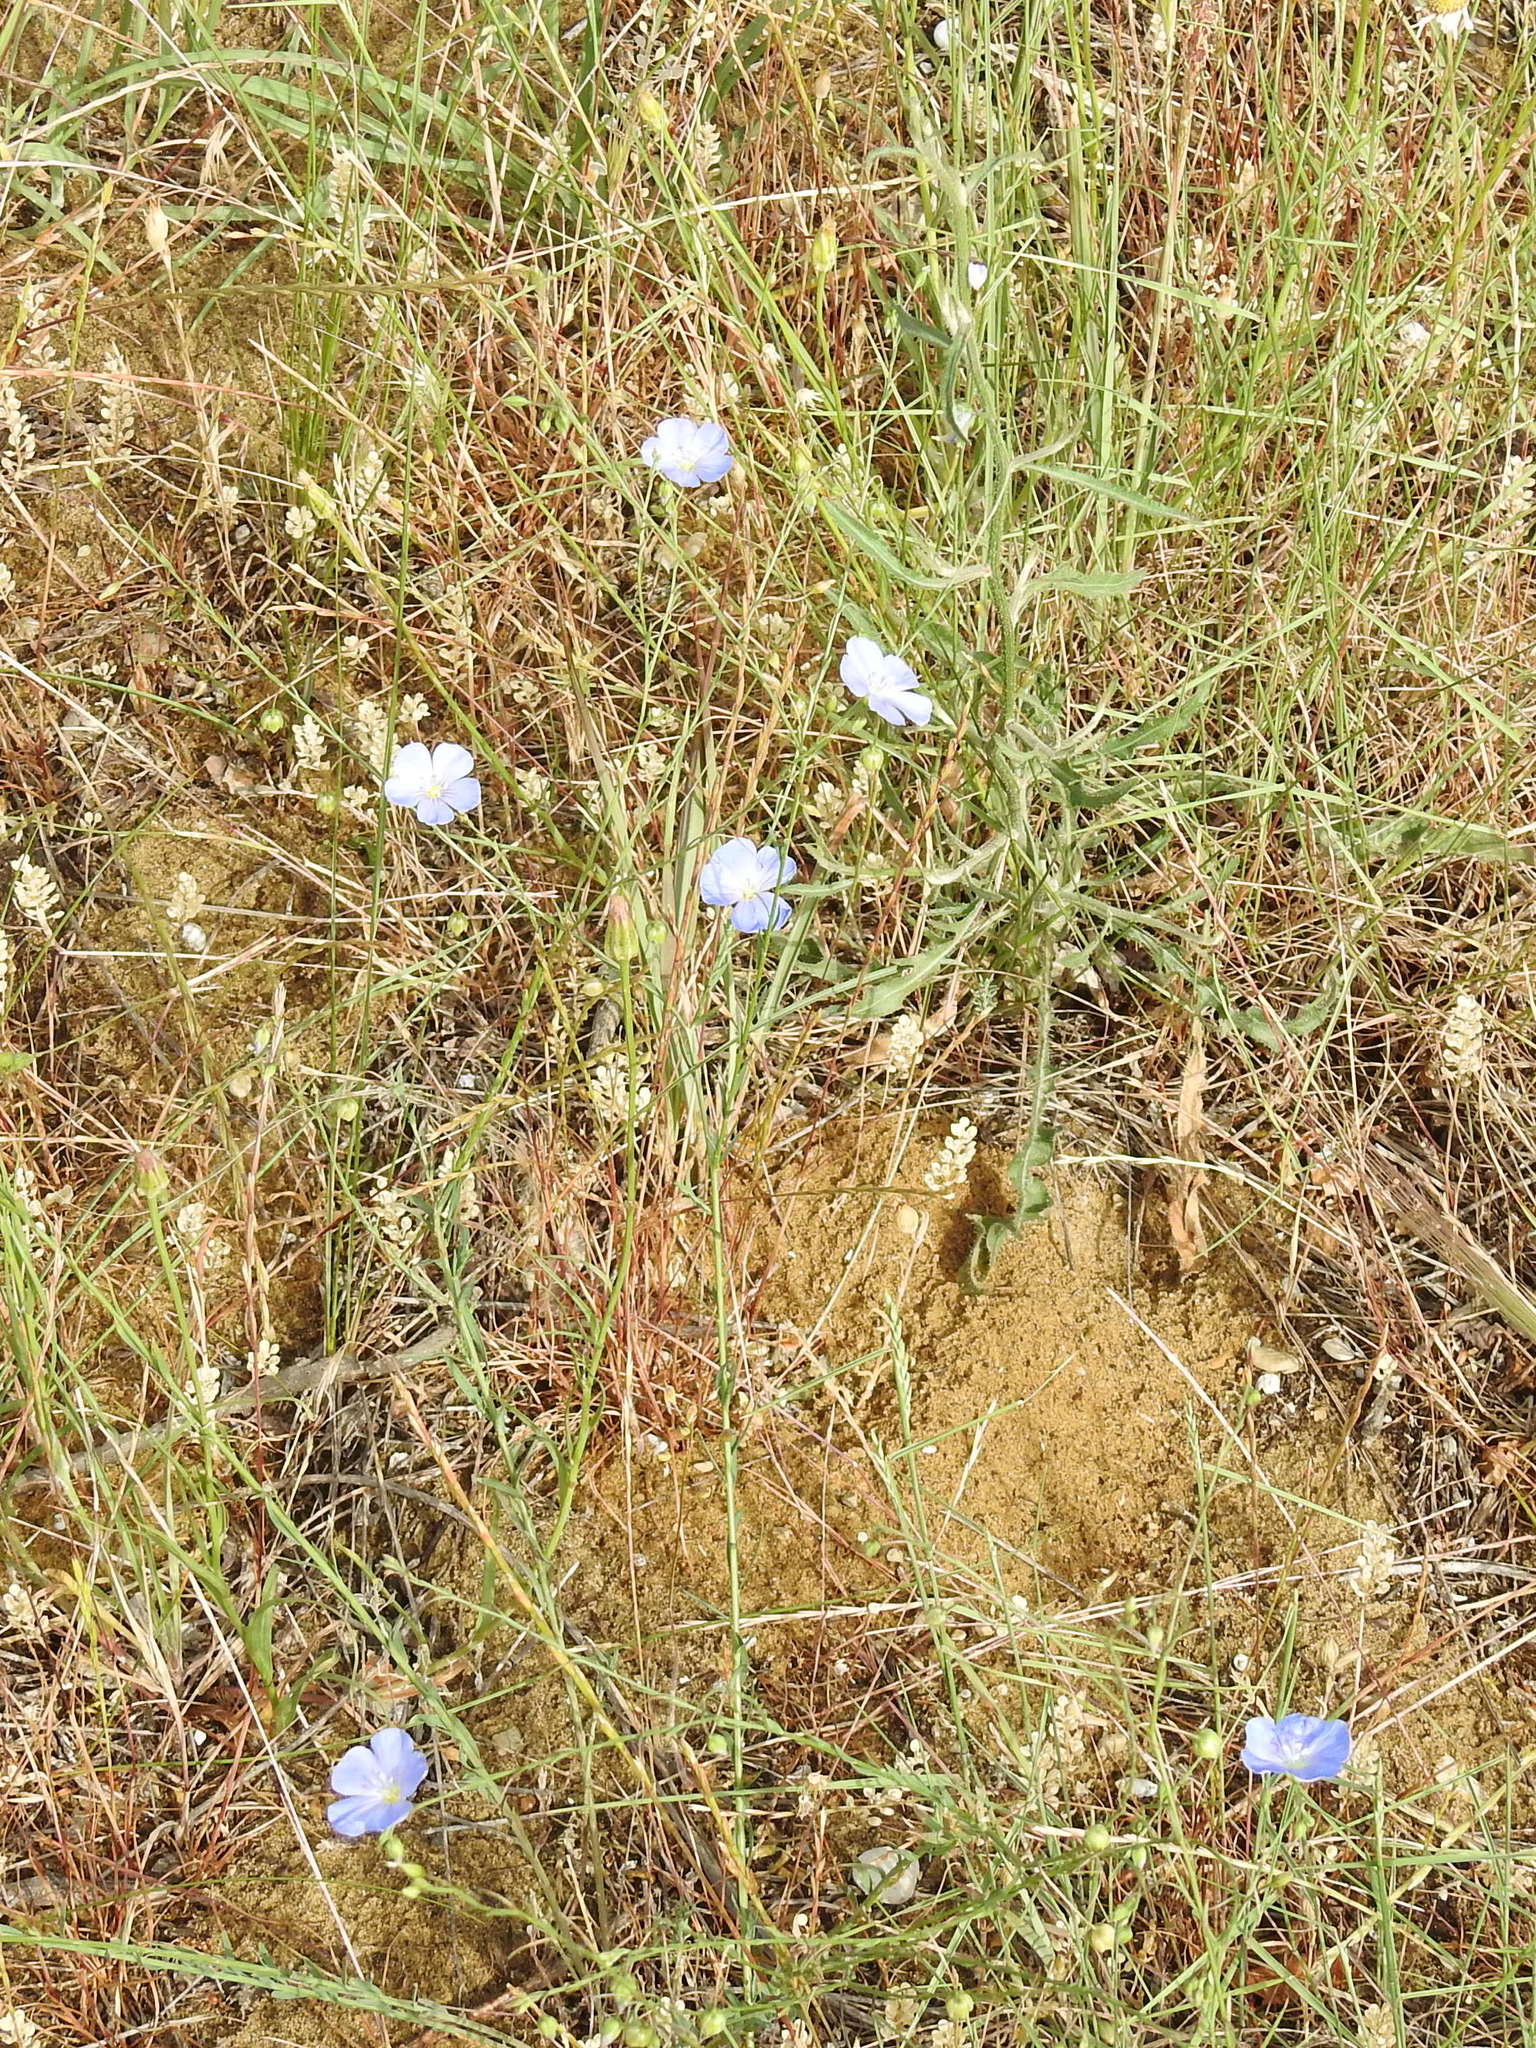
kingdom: Plantae
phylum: Tracheophyta
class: Magnoliopsida
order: Malpighiales
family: Linaceae
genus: Linum
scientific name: Linum austriacum
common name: Austrian flax
